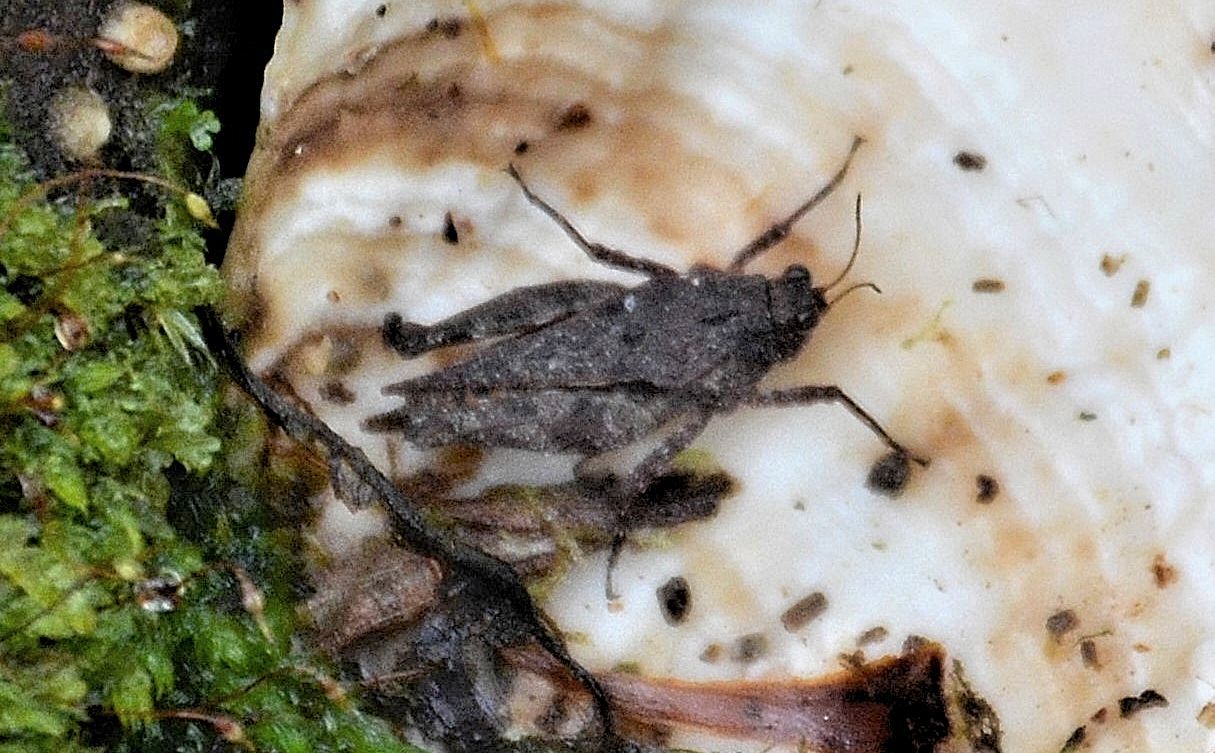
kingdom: Animalia
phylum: Arthropoda
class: Insecta
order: Orthoptera
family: Tetrigidae
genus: Crimisus
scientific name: Crimisus costaricensis
